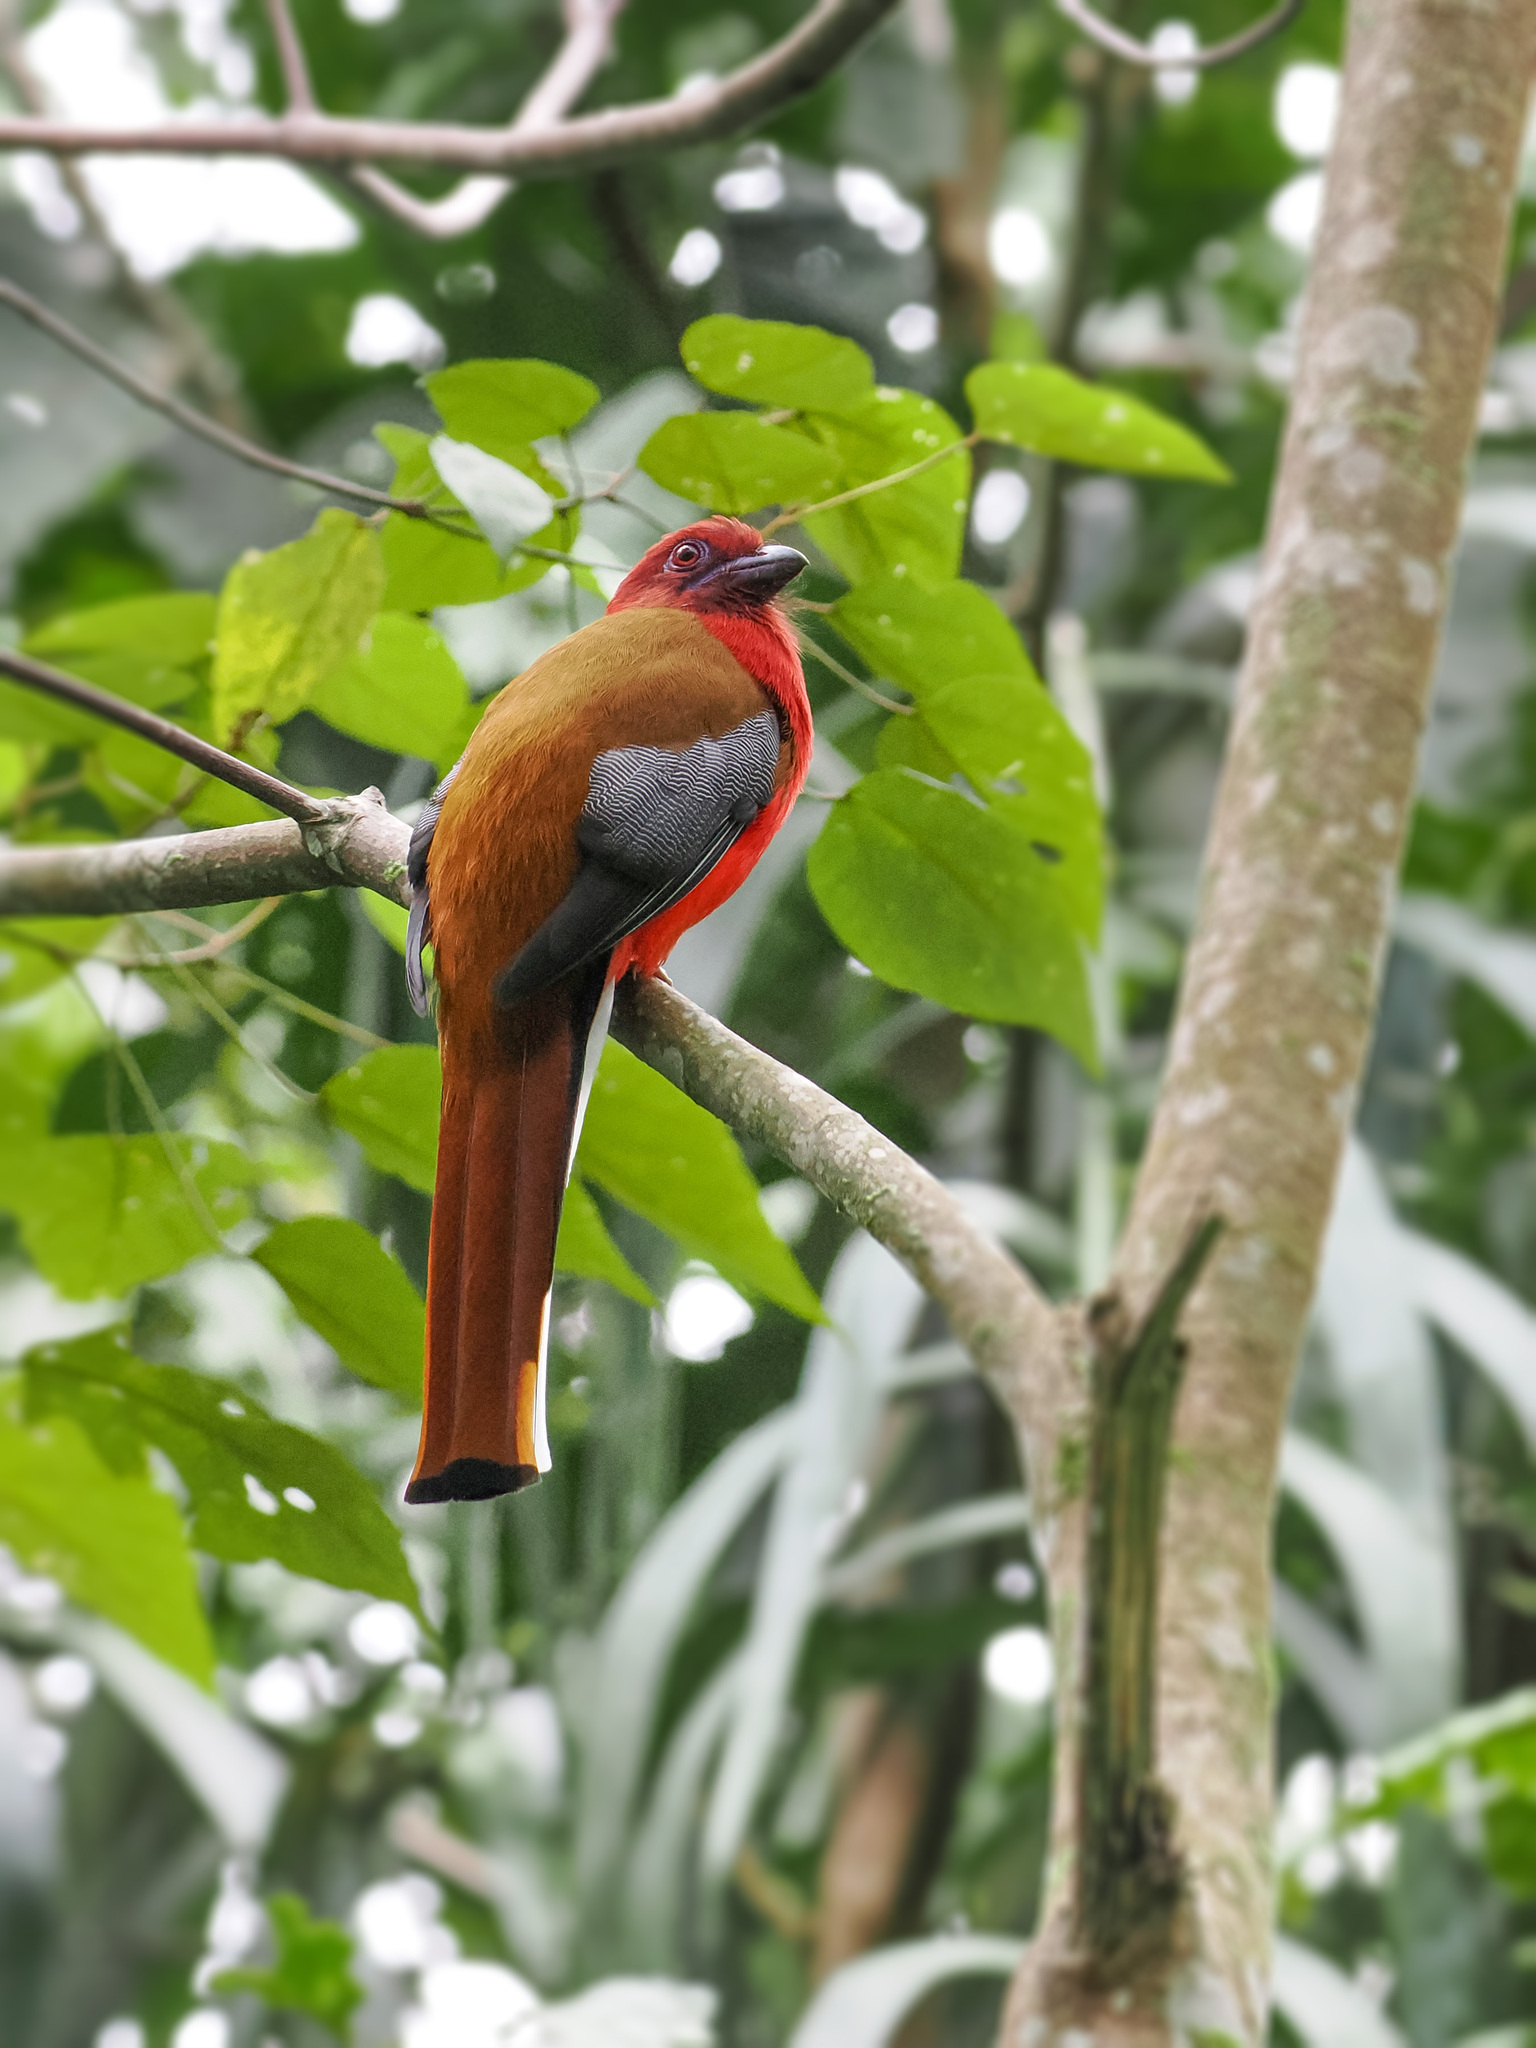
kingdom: Animalia
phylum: Chordata
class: Aves
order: Trogoniformes
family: Trogonidae
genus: Harpactes
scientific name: Harpactes erythrocephalus
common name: Red-headed trogon
